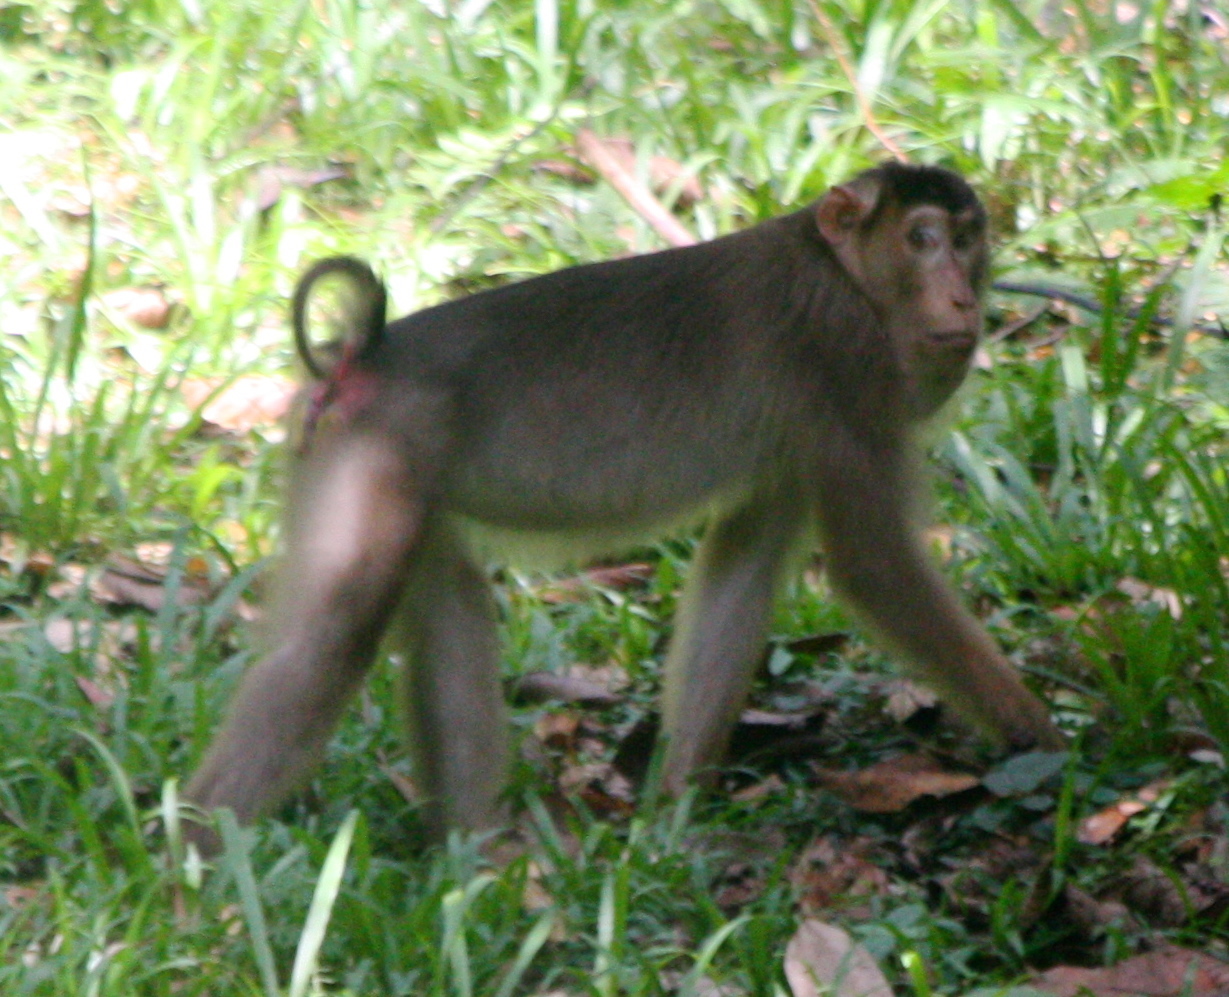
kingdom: Animalia
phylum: Chordata
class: Mammalia
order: Primates
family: Cercopithecidae
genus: Macaca
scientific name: Macaca nemestrina
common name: Southern pig-tailed macaque
